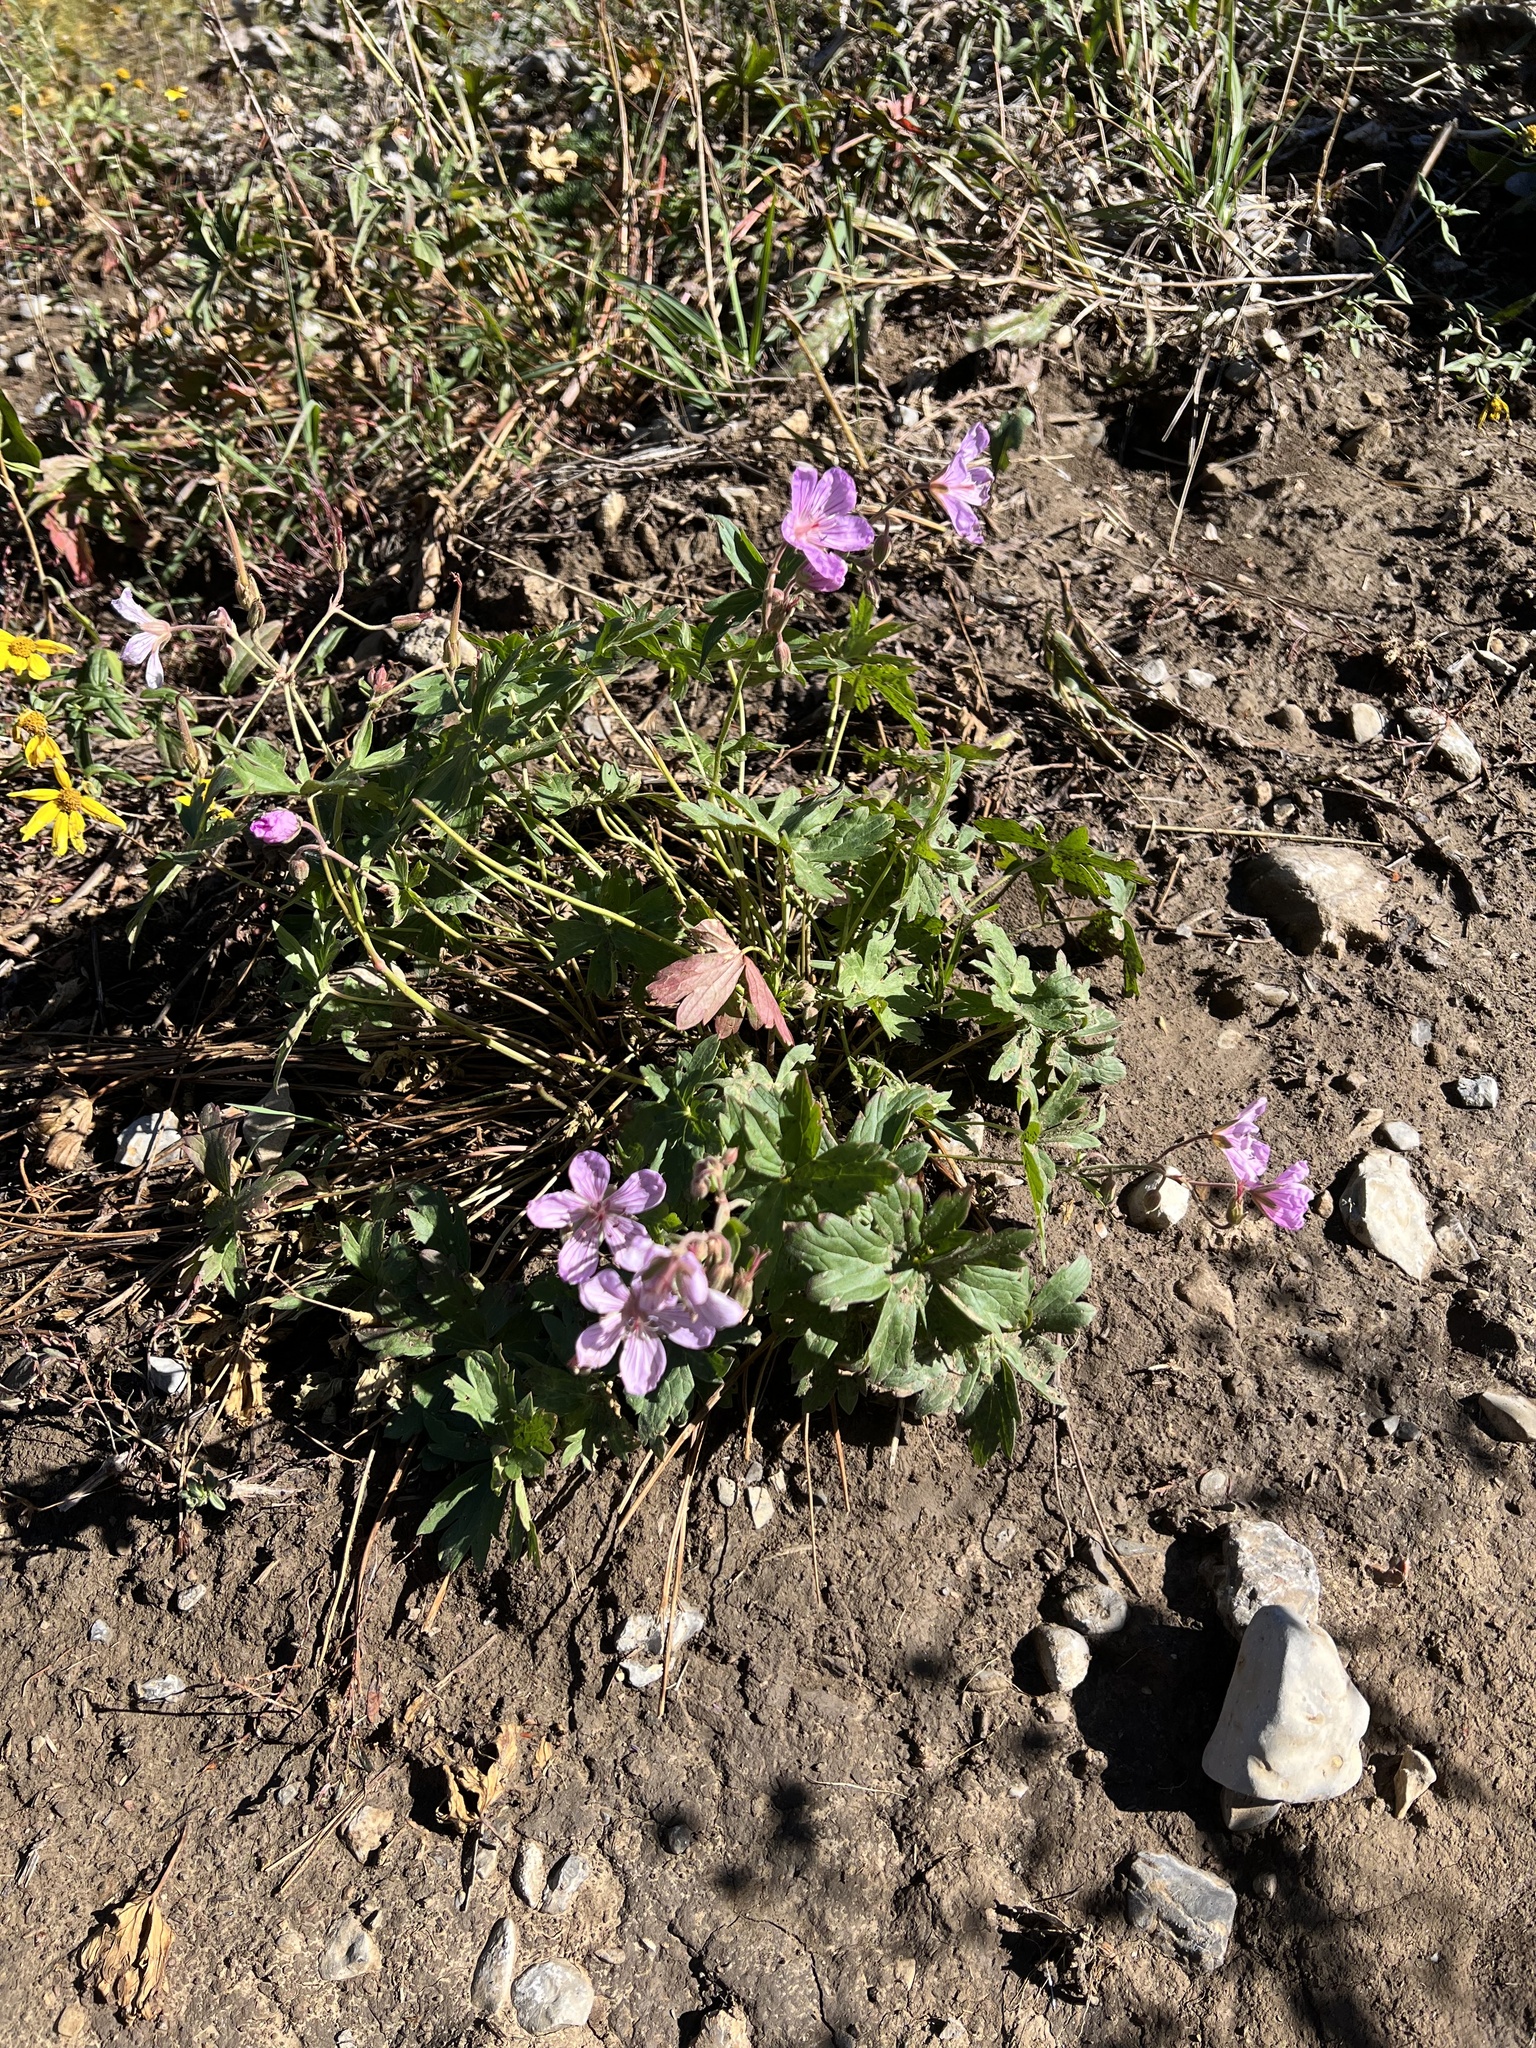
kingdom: Plantae
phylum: Tracheophyta
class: Magnoliopsida
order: Geraniales
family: Geraniaceae
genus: Geranium
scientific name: Geranium viscosissimum
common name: Purple geranium
